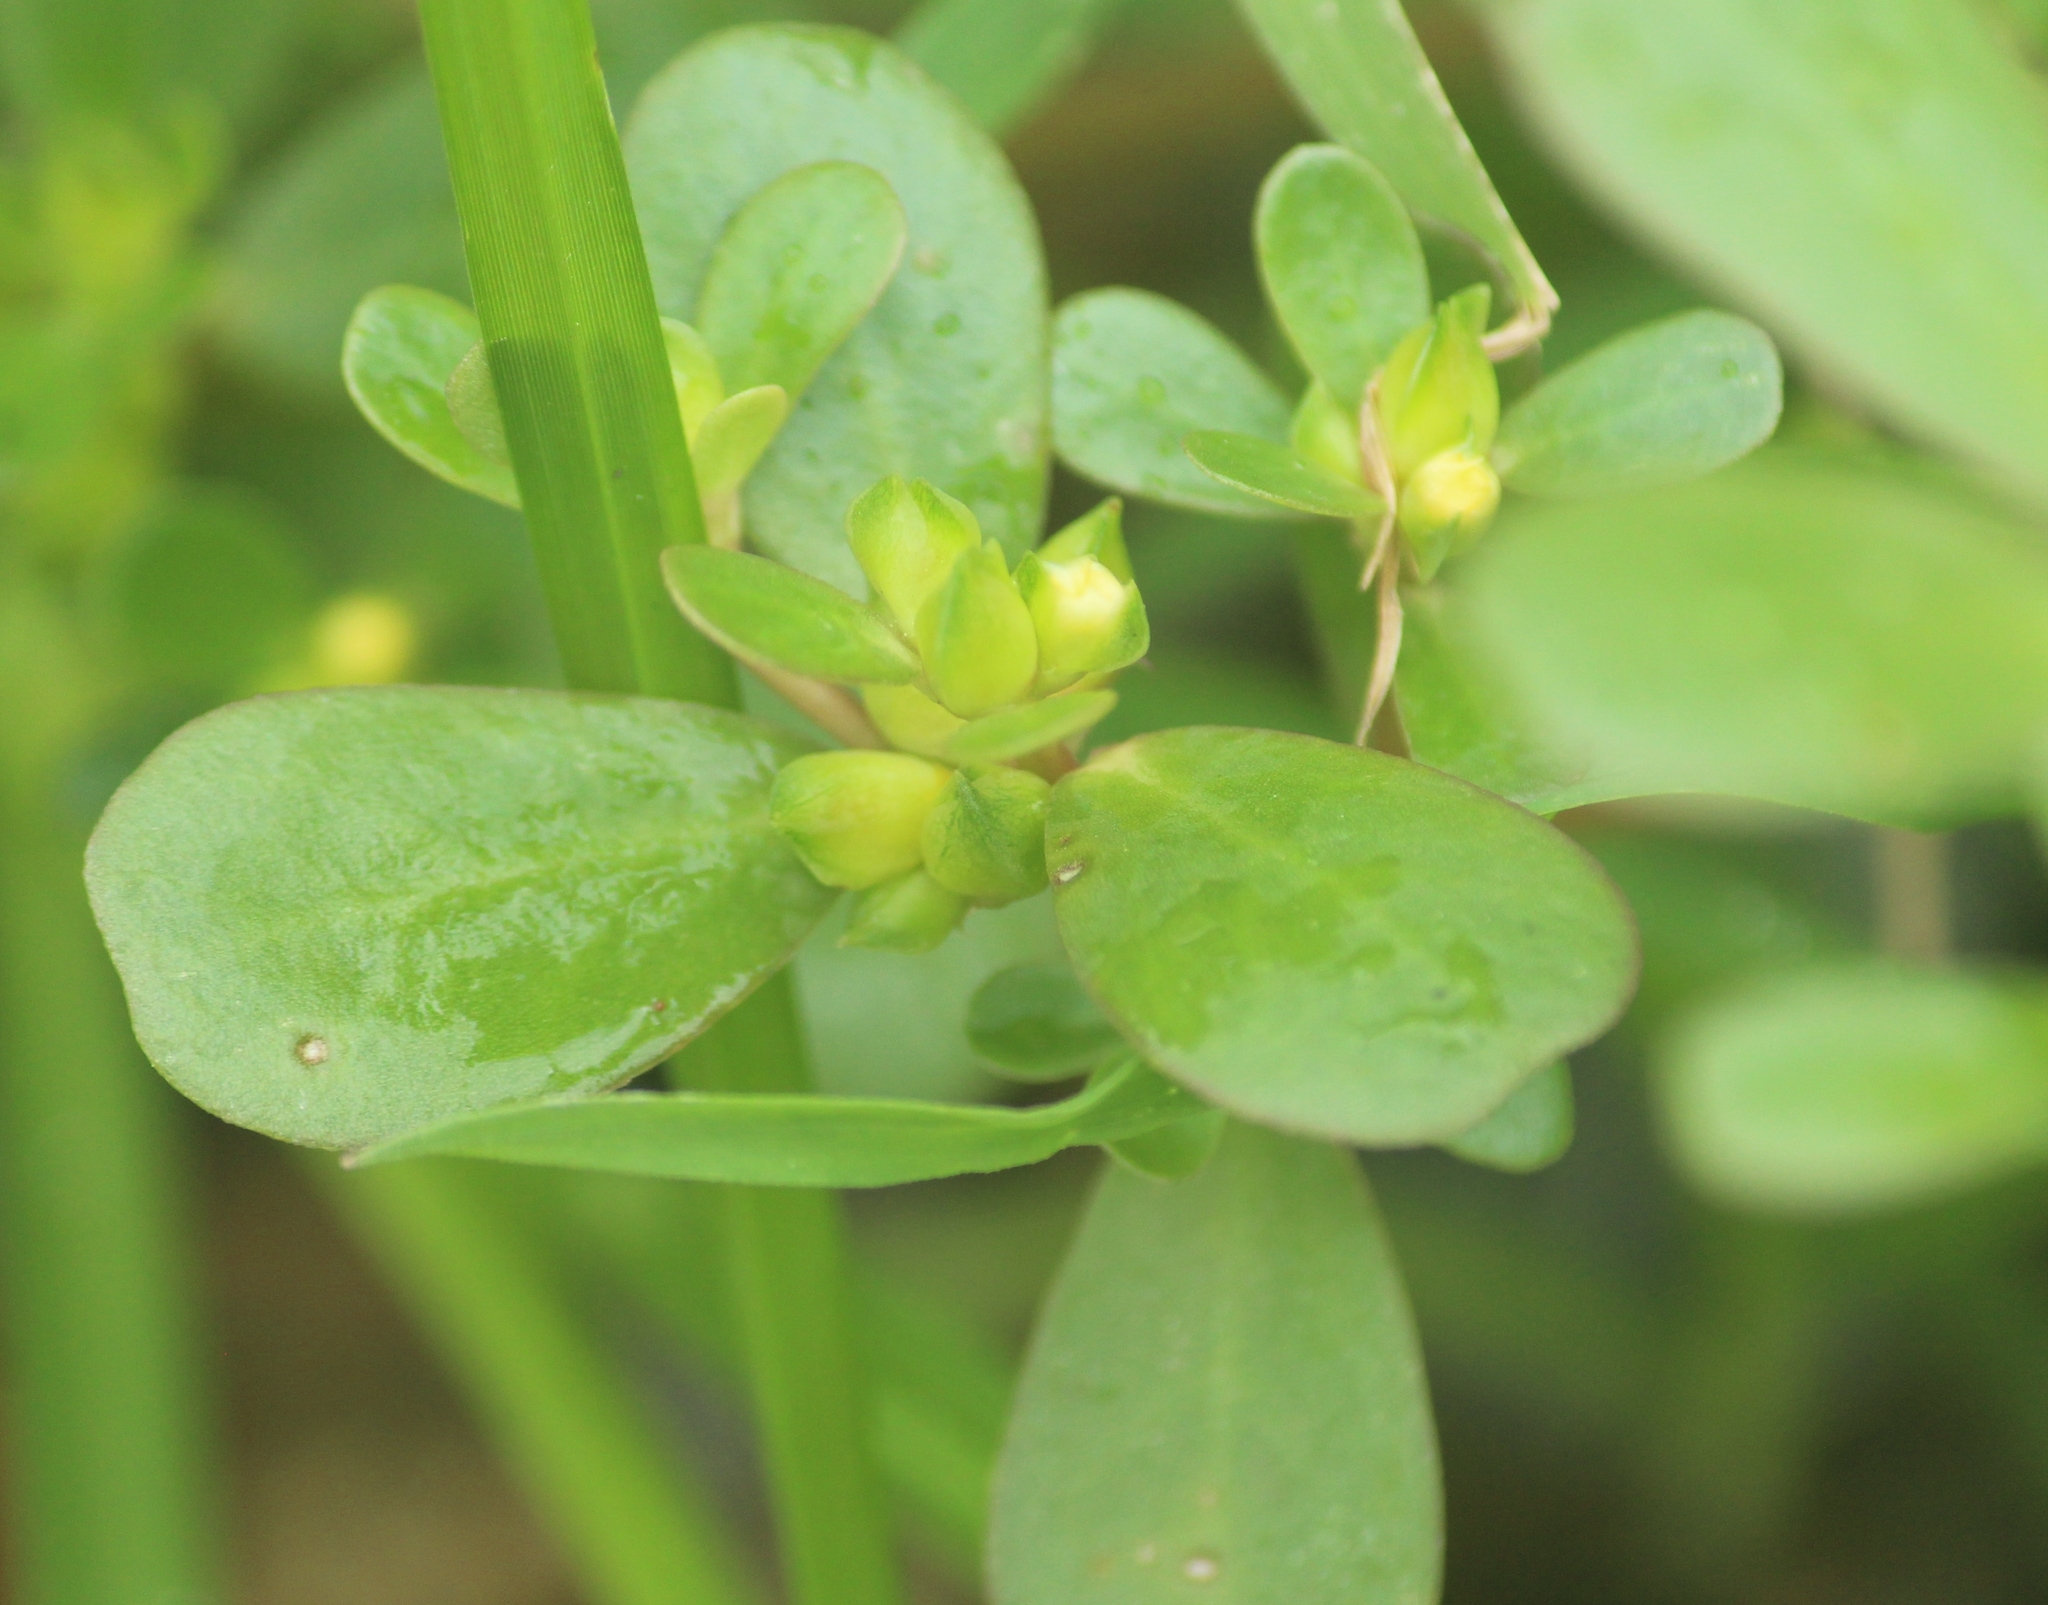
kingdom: Plantae
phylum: Tracheophyta
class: Magnoliopsida
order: Caryophyllales
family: Portulacaceae
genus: Portulaca
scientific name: Portulaca oleracea
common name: Common purslane
